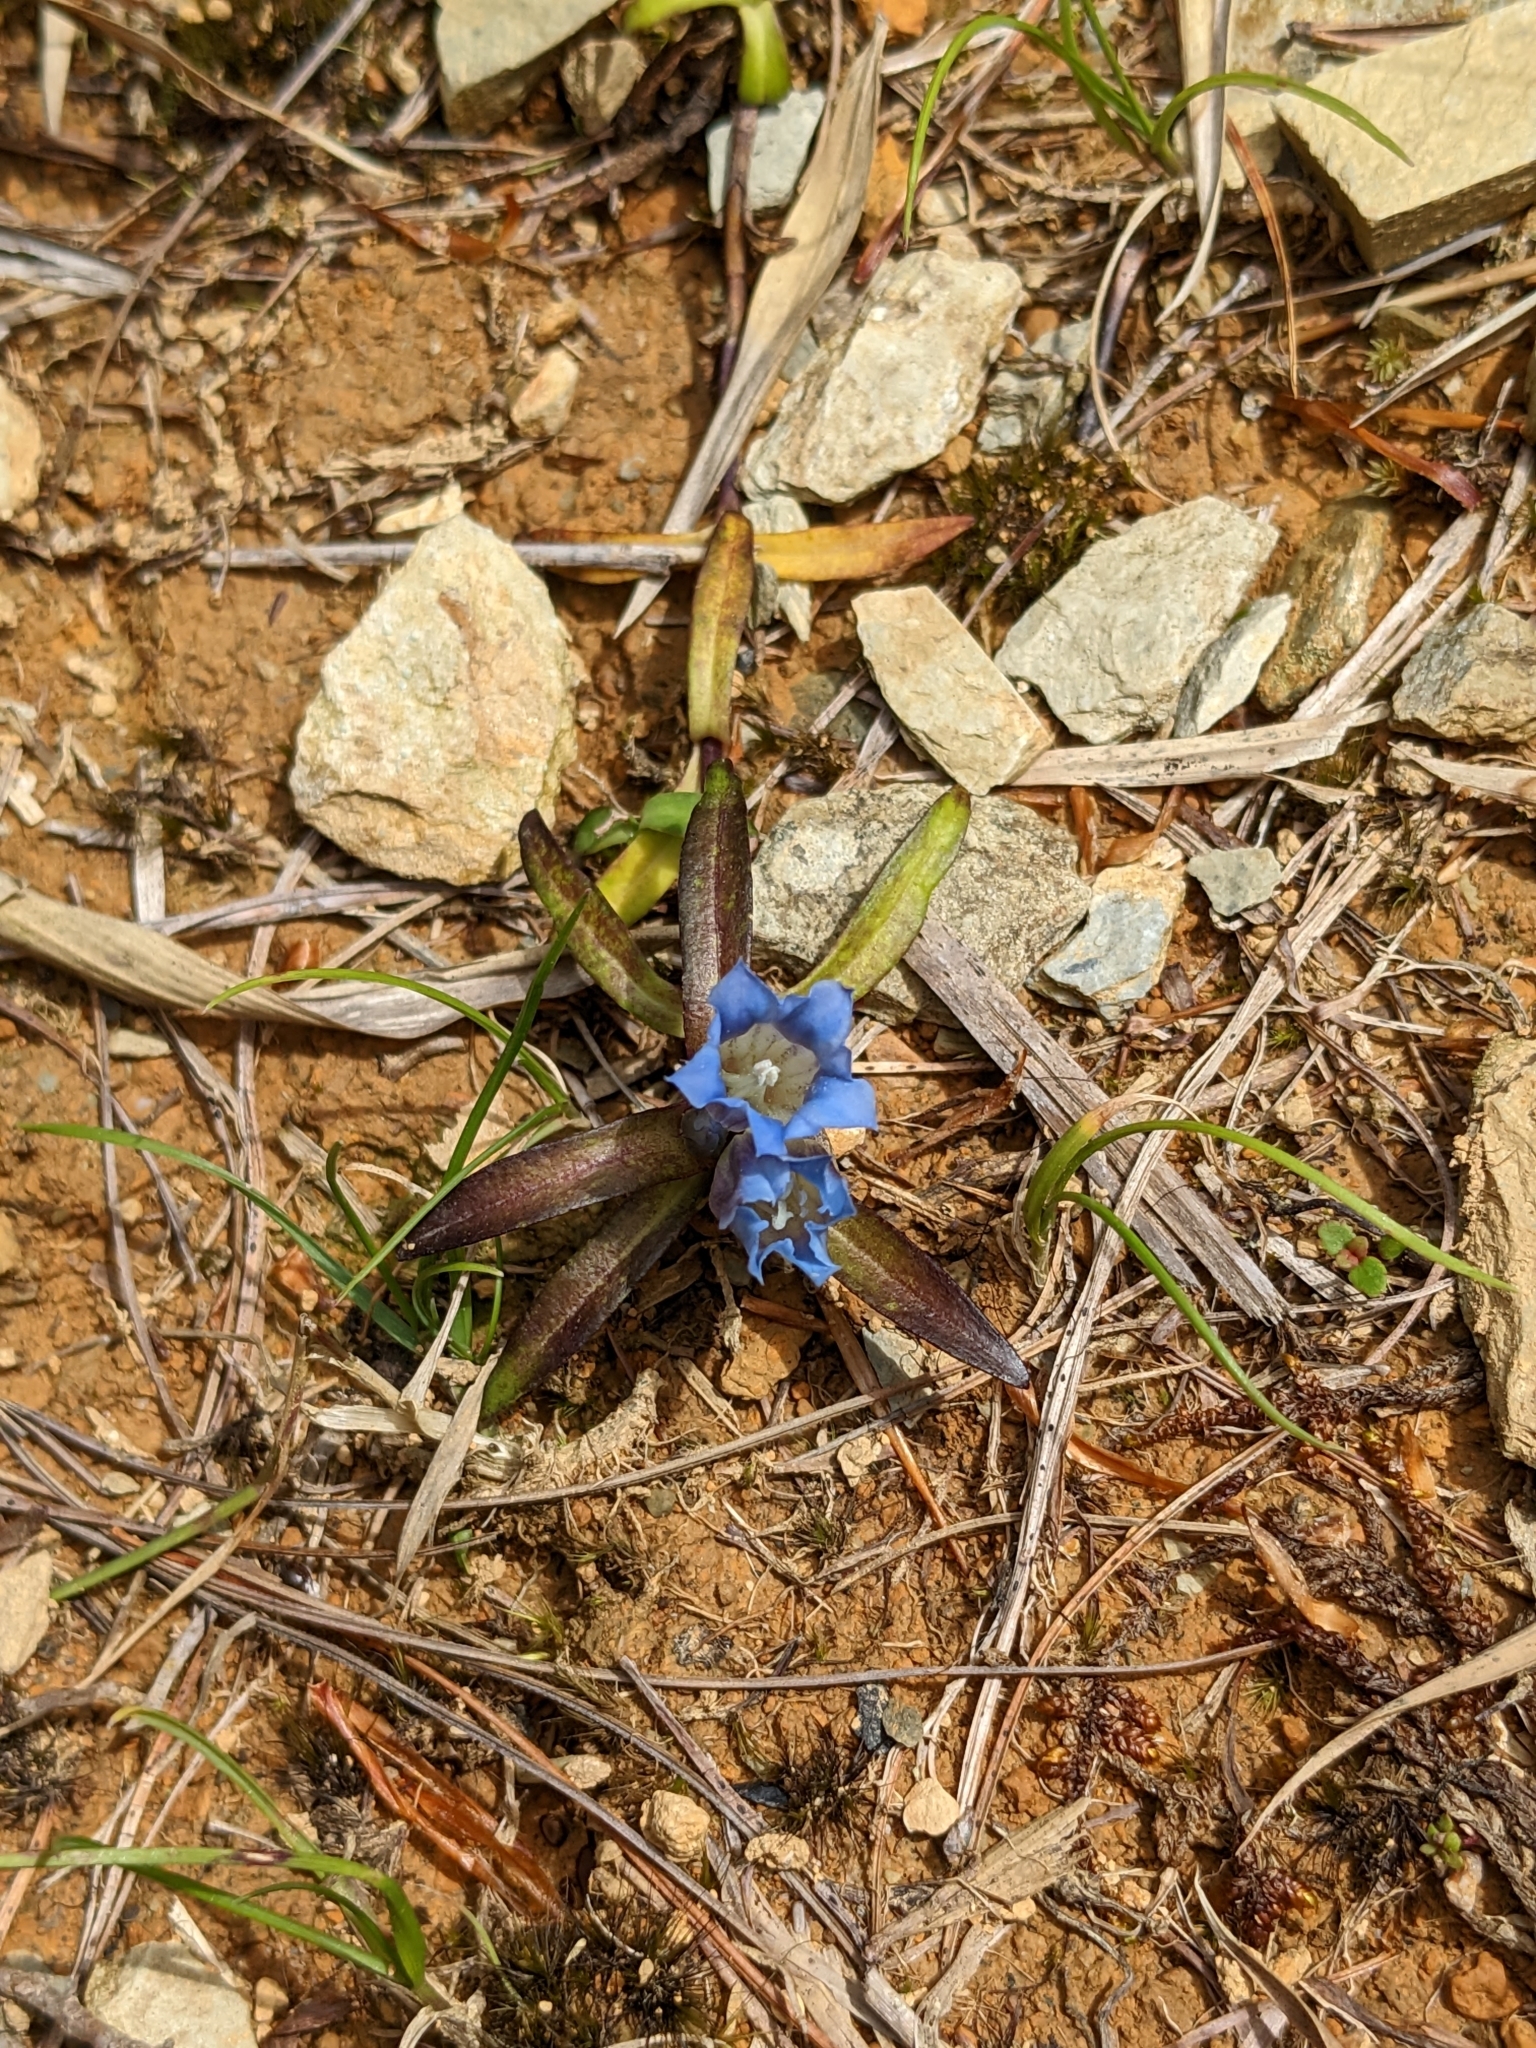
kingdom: Plantae
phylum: Tracheophyta
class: Magnoliopsida
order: Gentianales
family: Gentianaceae
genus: Gentiana
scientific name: Gentiana davidii
